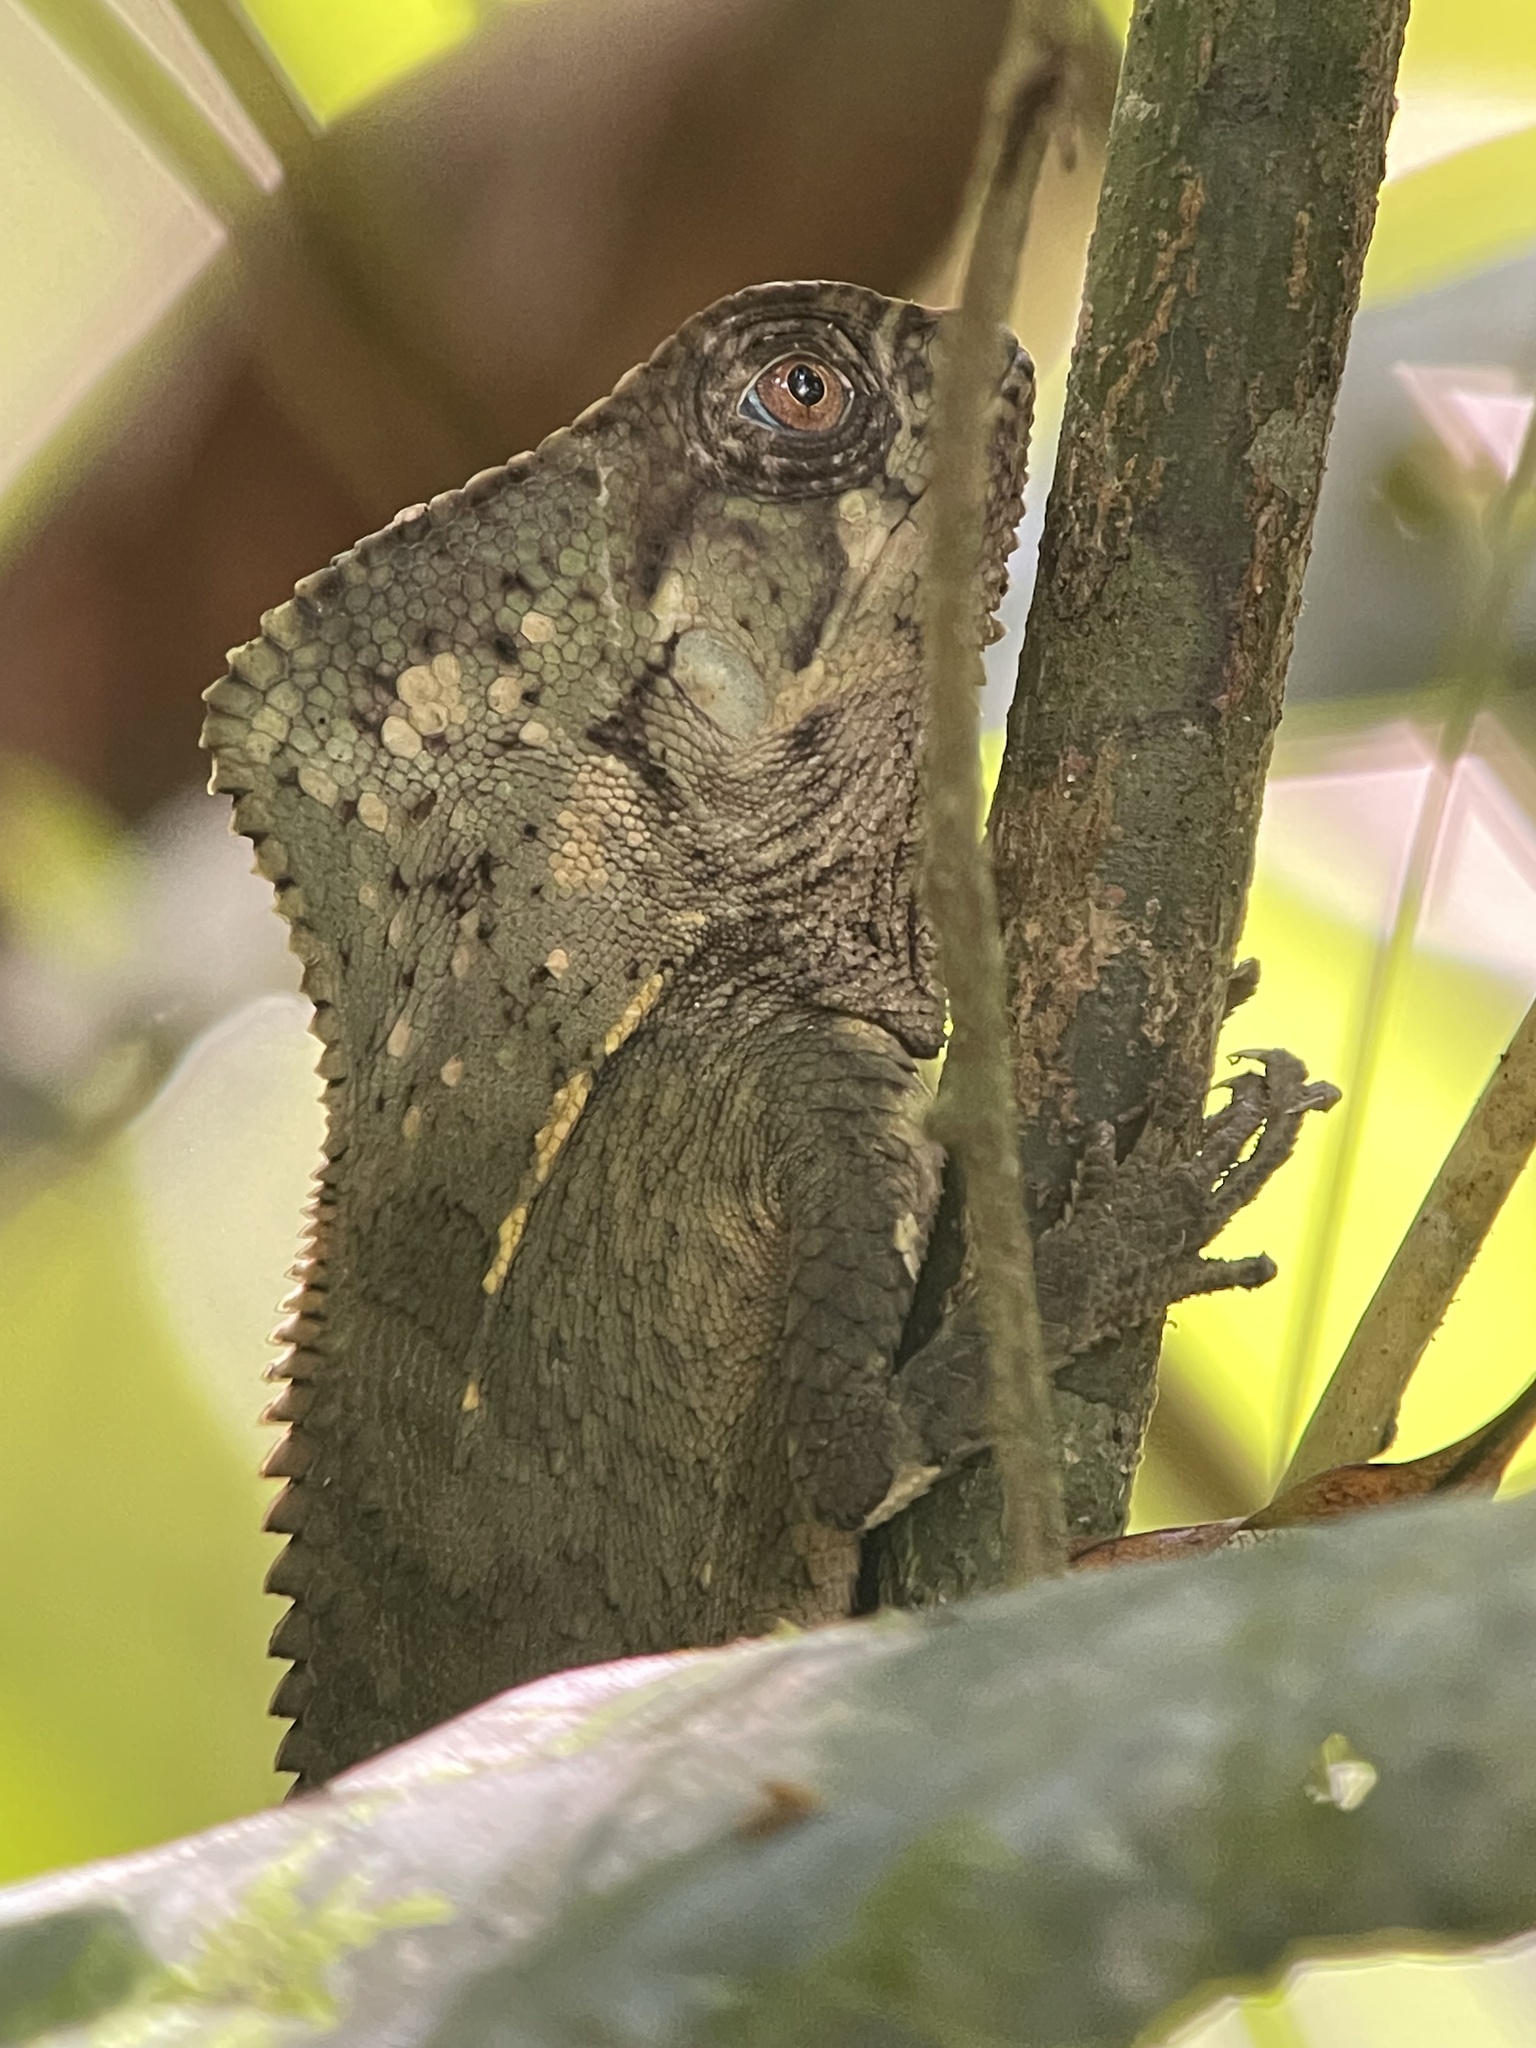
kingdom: Animalia
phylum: Chordata
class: Squamata
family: Corytophanidae
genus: Corytophanes
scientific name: Corytophanes cristatus
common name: Smooth helmeted iguana
